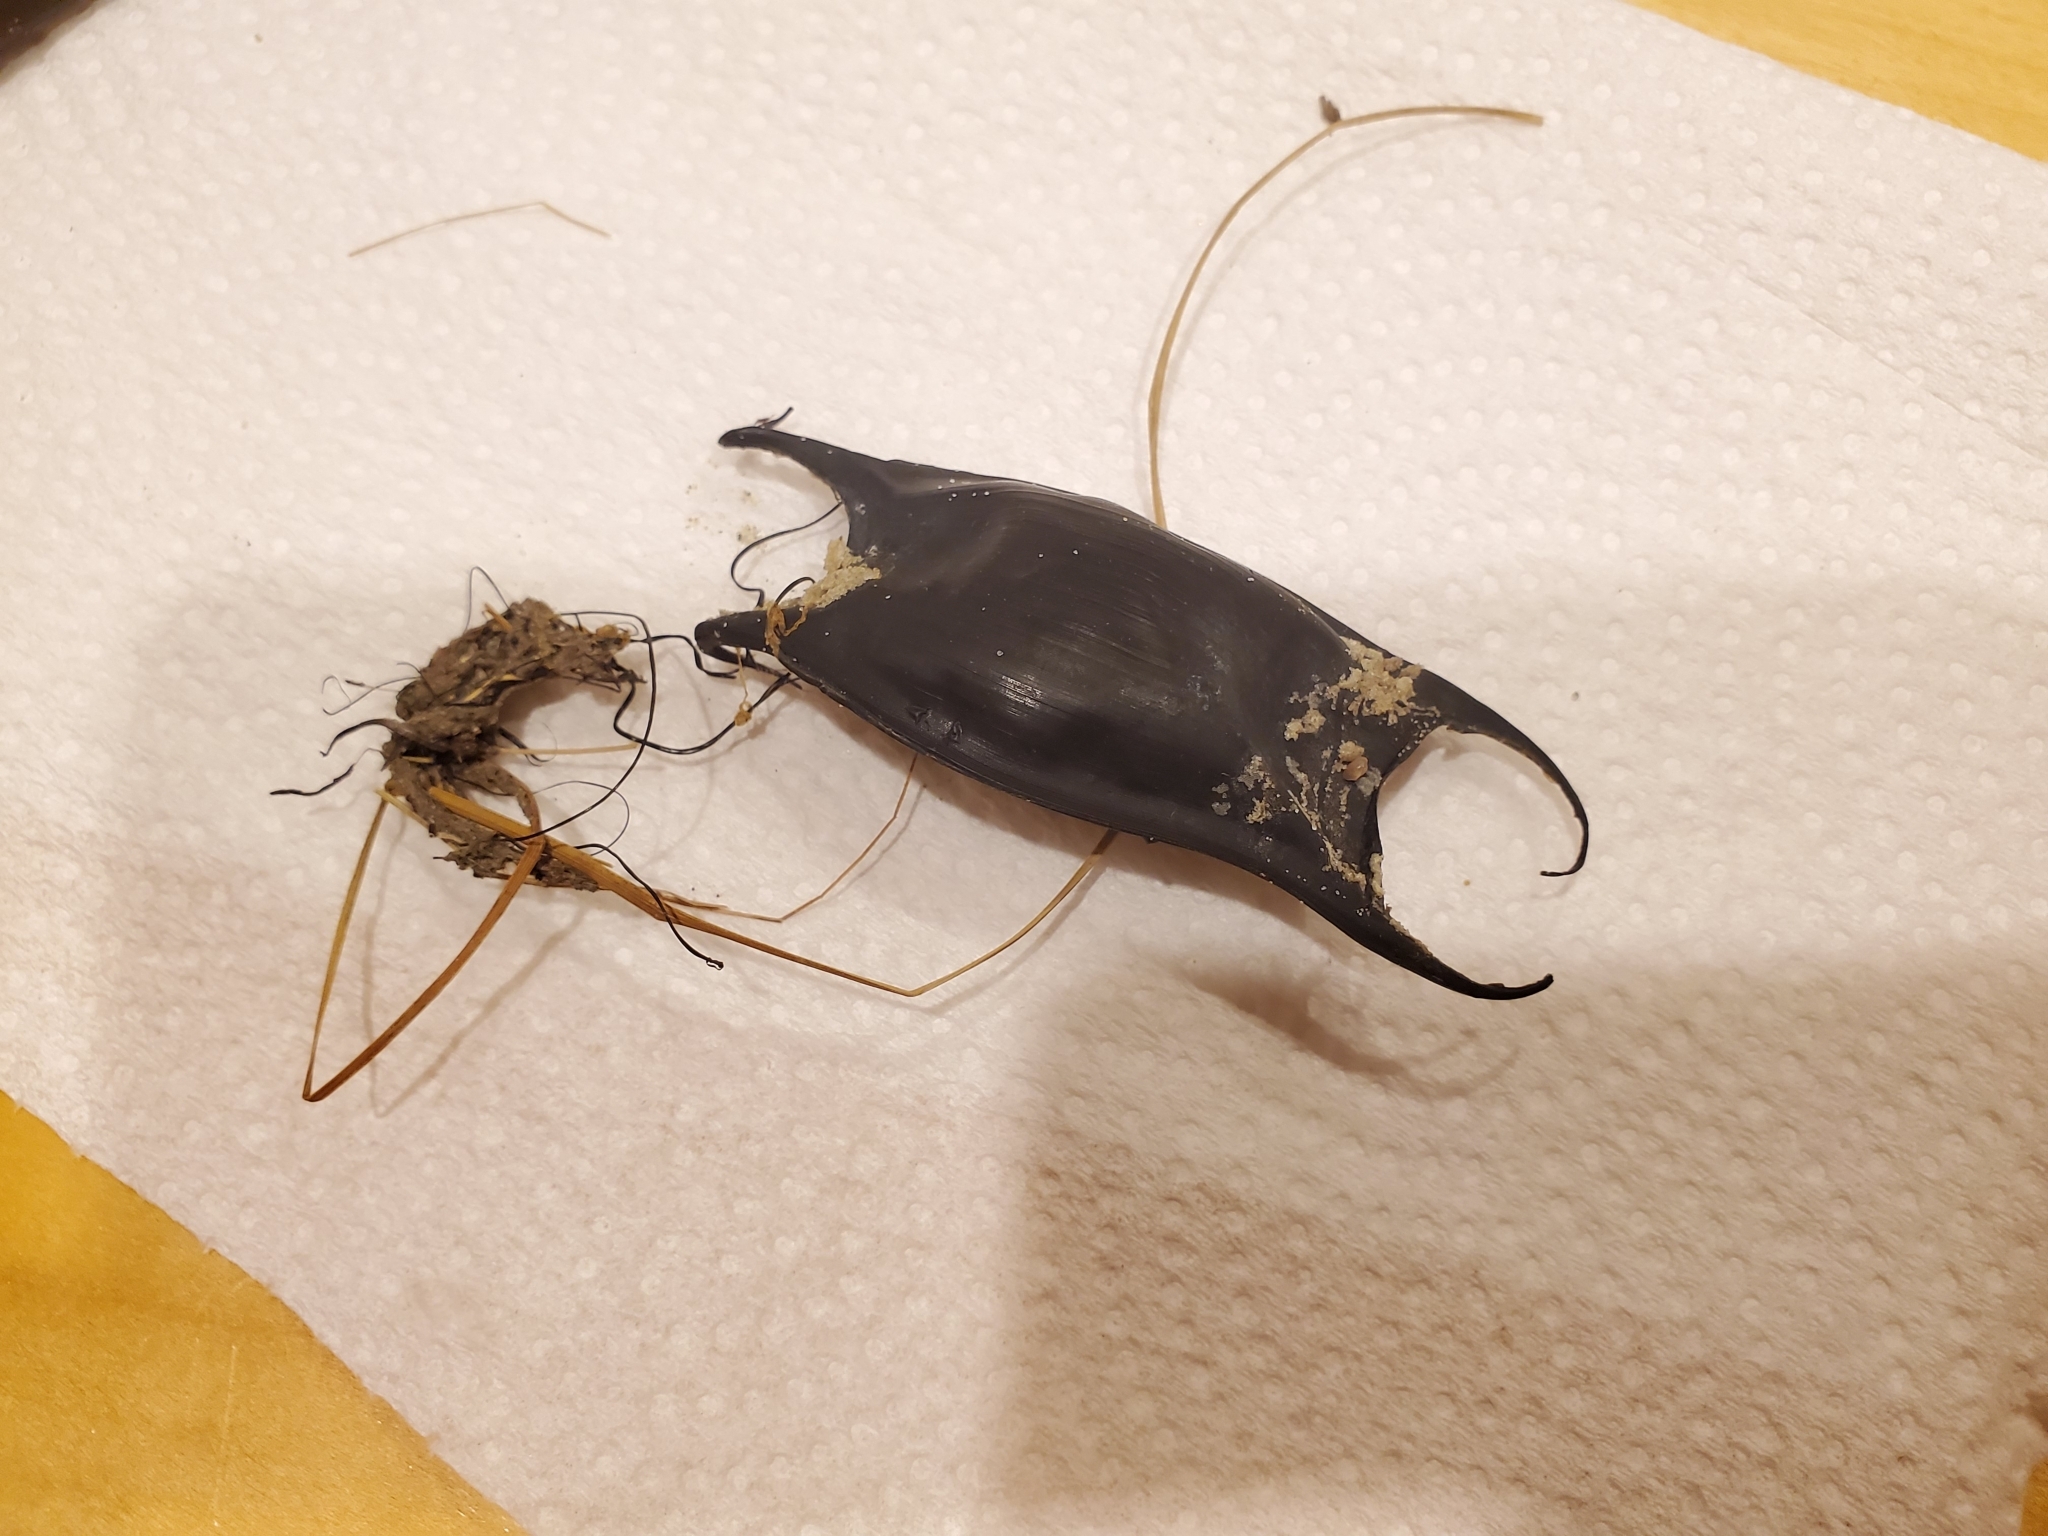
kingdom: Animalia
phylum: Chordata
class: Elasmobranchii
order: Rajiformes
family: Rajidae
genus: Raja
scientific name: Raja eglanteria
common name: Clearnose skate
